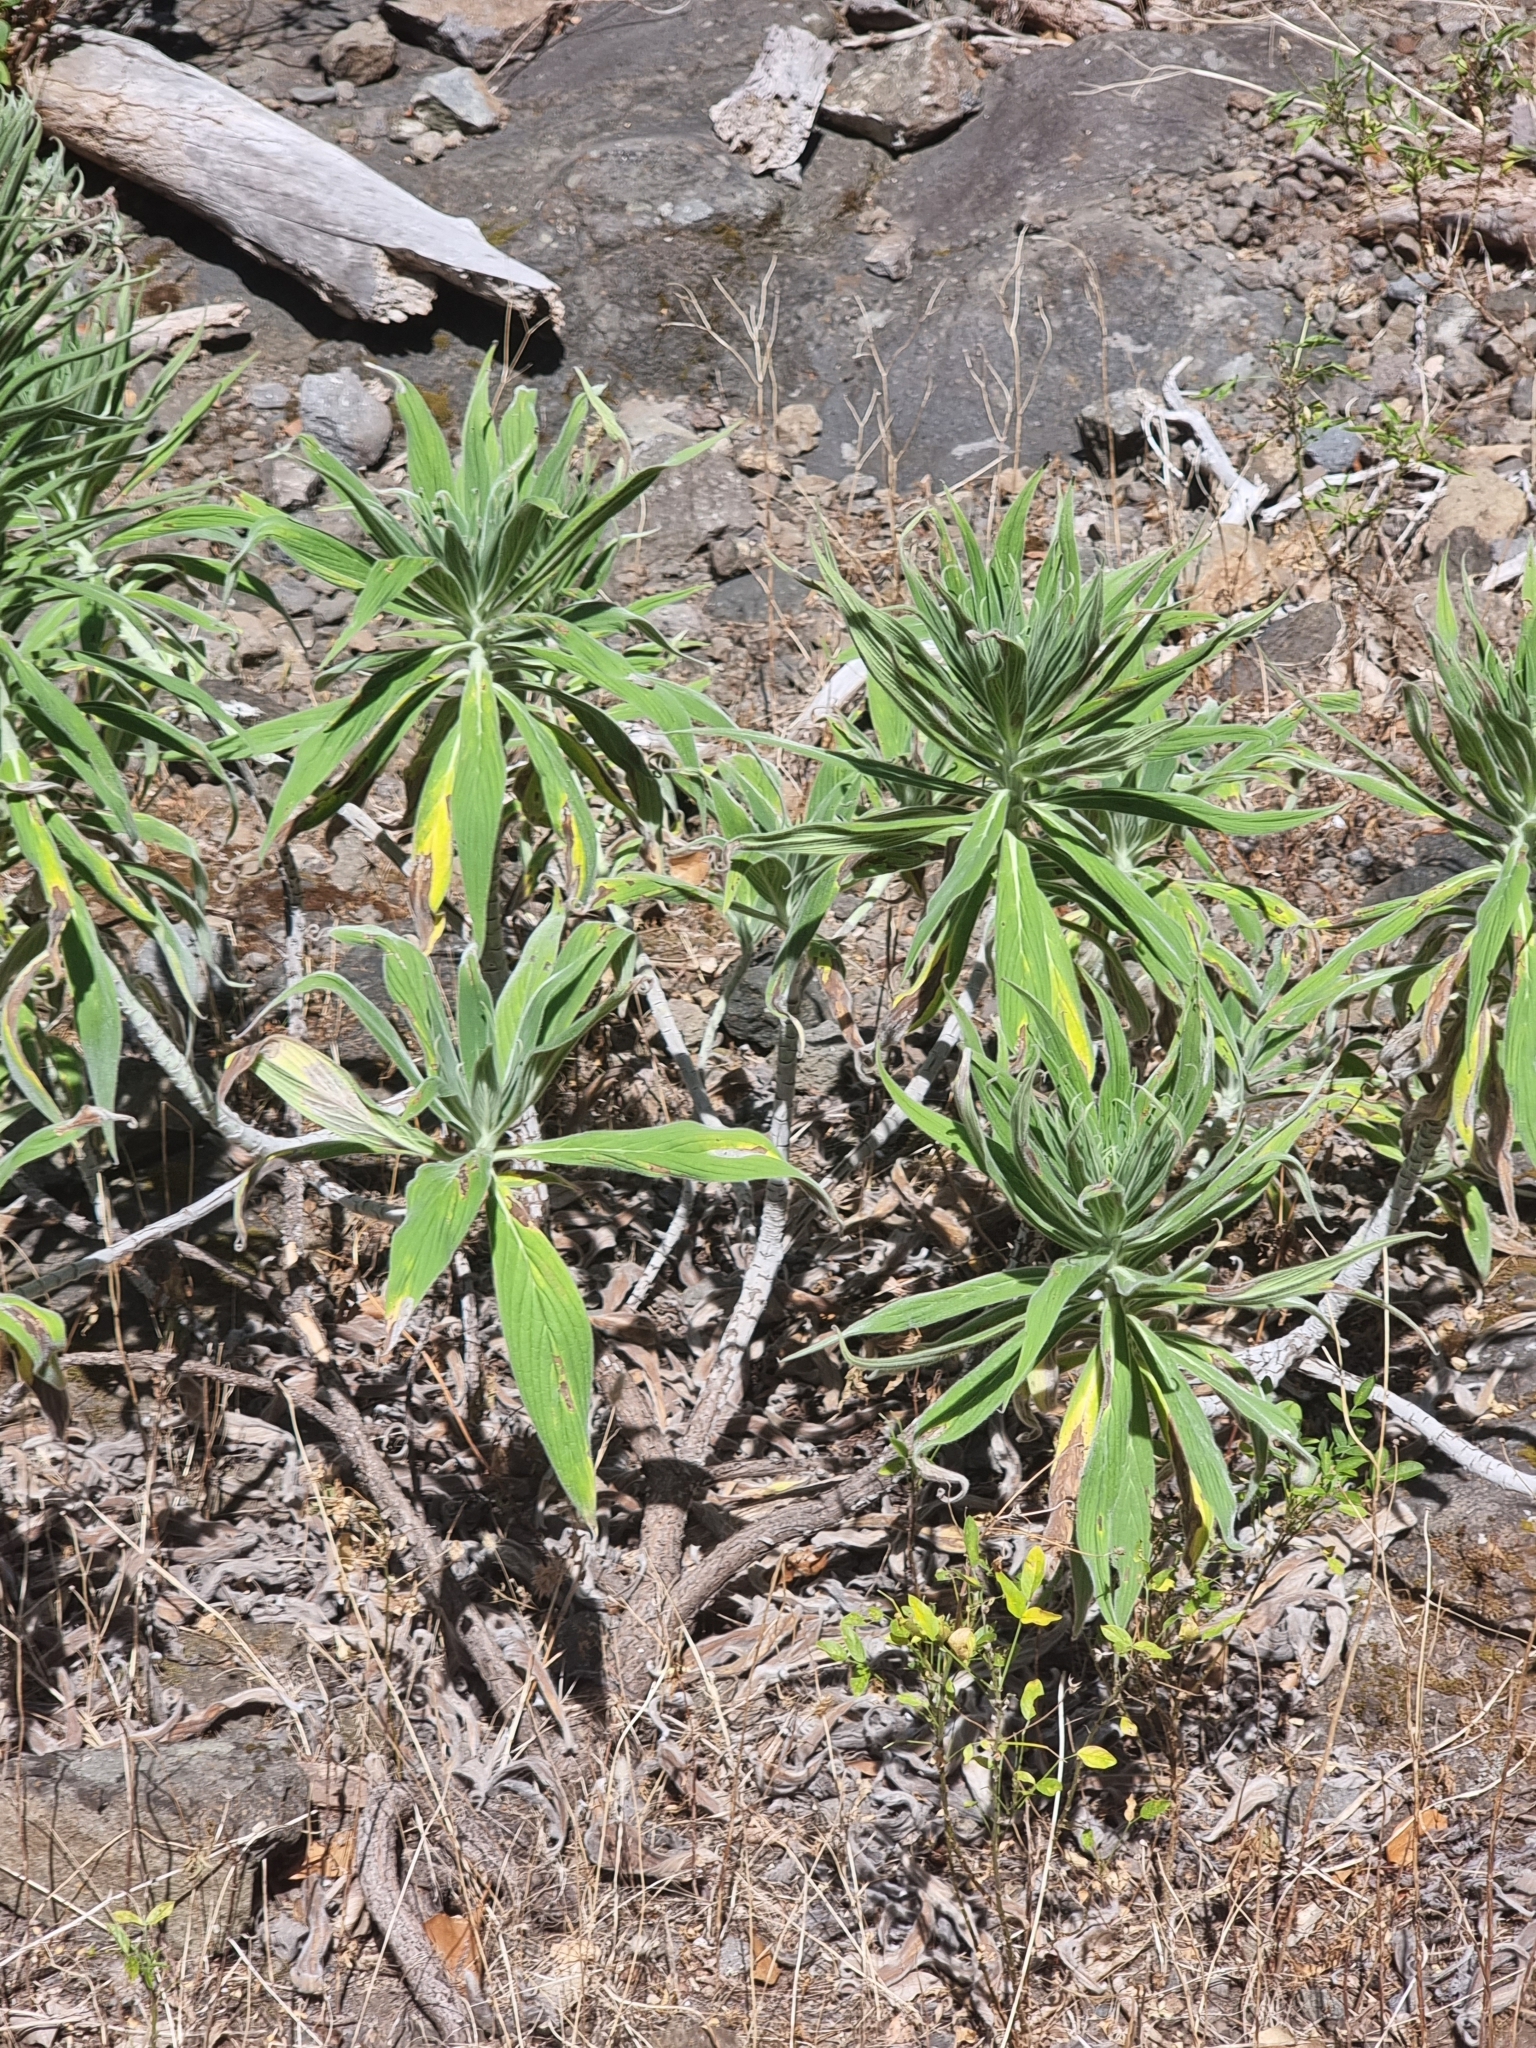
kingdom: Plantae
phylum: Tracheophyta
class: Magnoliopsida
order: Boraginales
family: Boraginaceae
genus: Echium
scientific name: Echium candicans
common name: Pride of madeira
